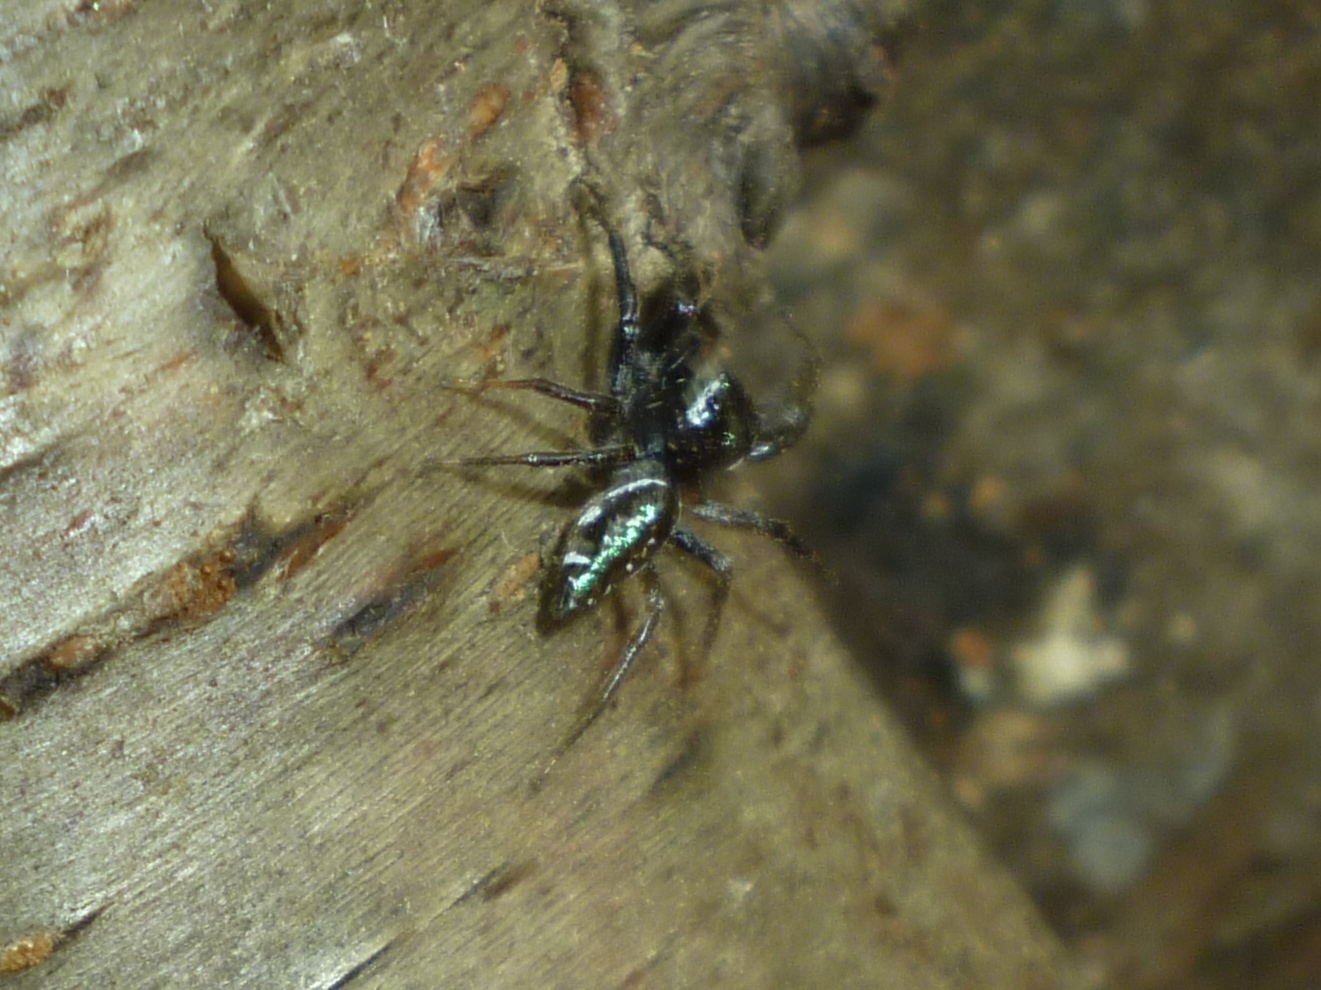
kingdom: Animalia
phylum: Arthropoda
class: Arachnida
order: Araneae
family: Salticidae
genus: Paraphidippus
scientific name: Paraphidippus aurantius
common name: Jumping spiders
